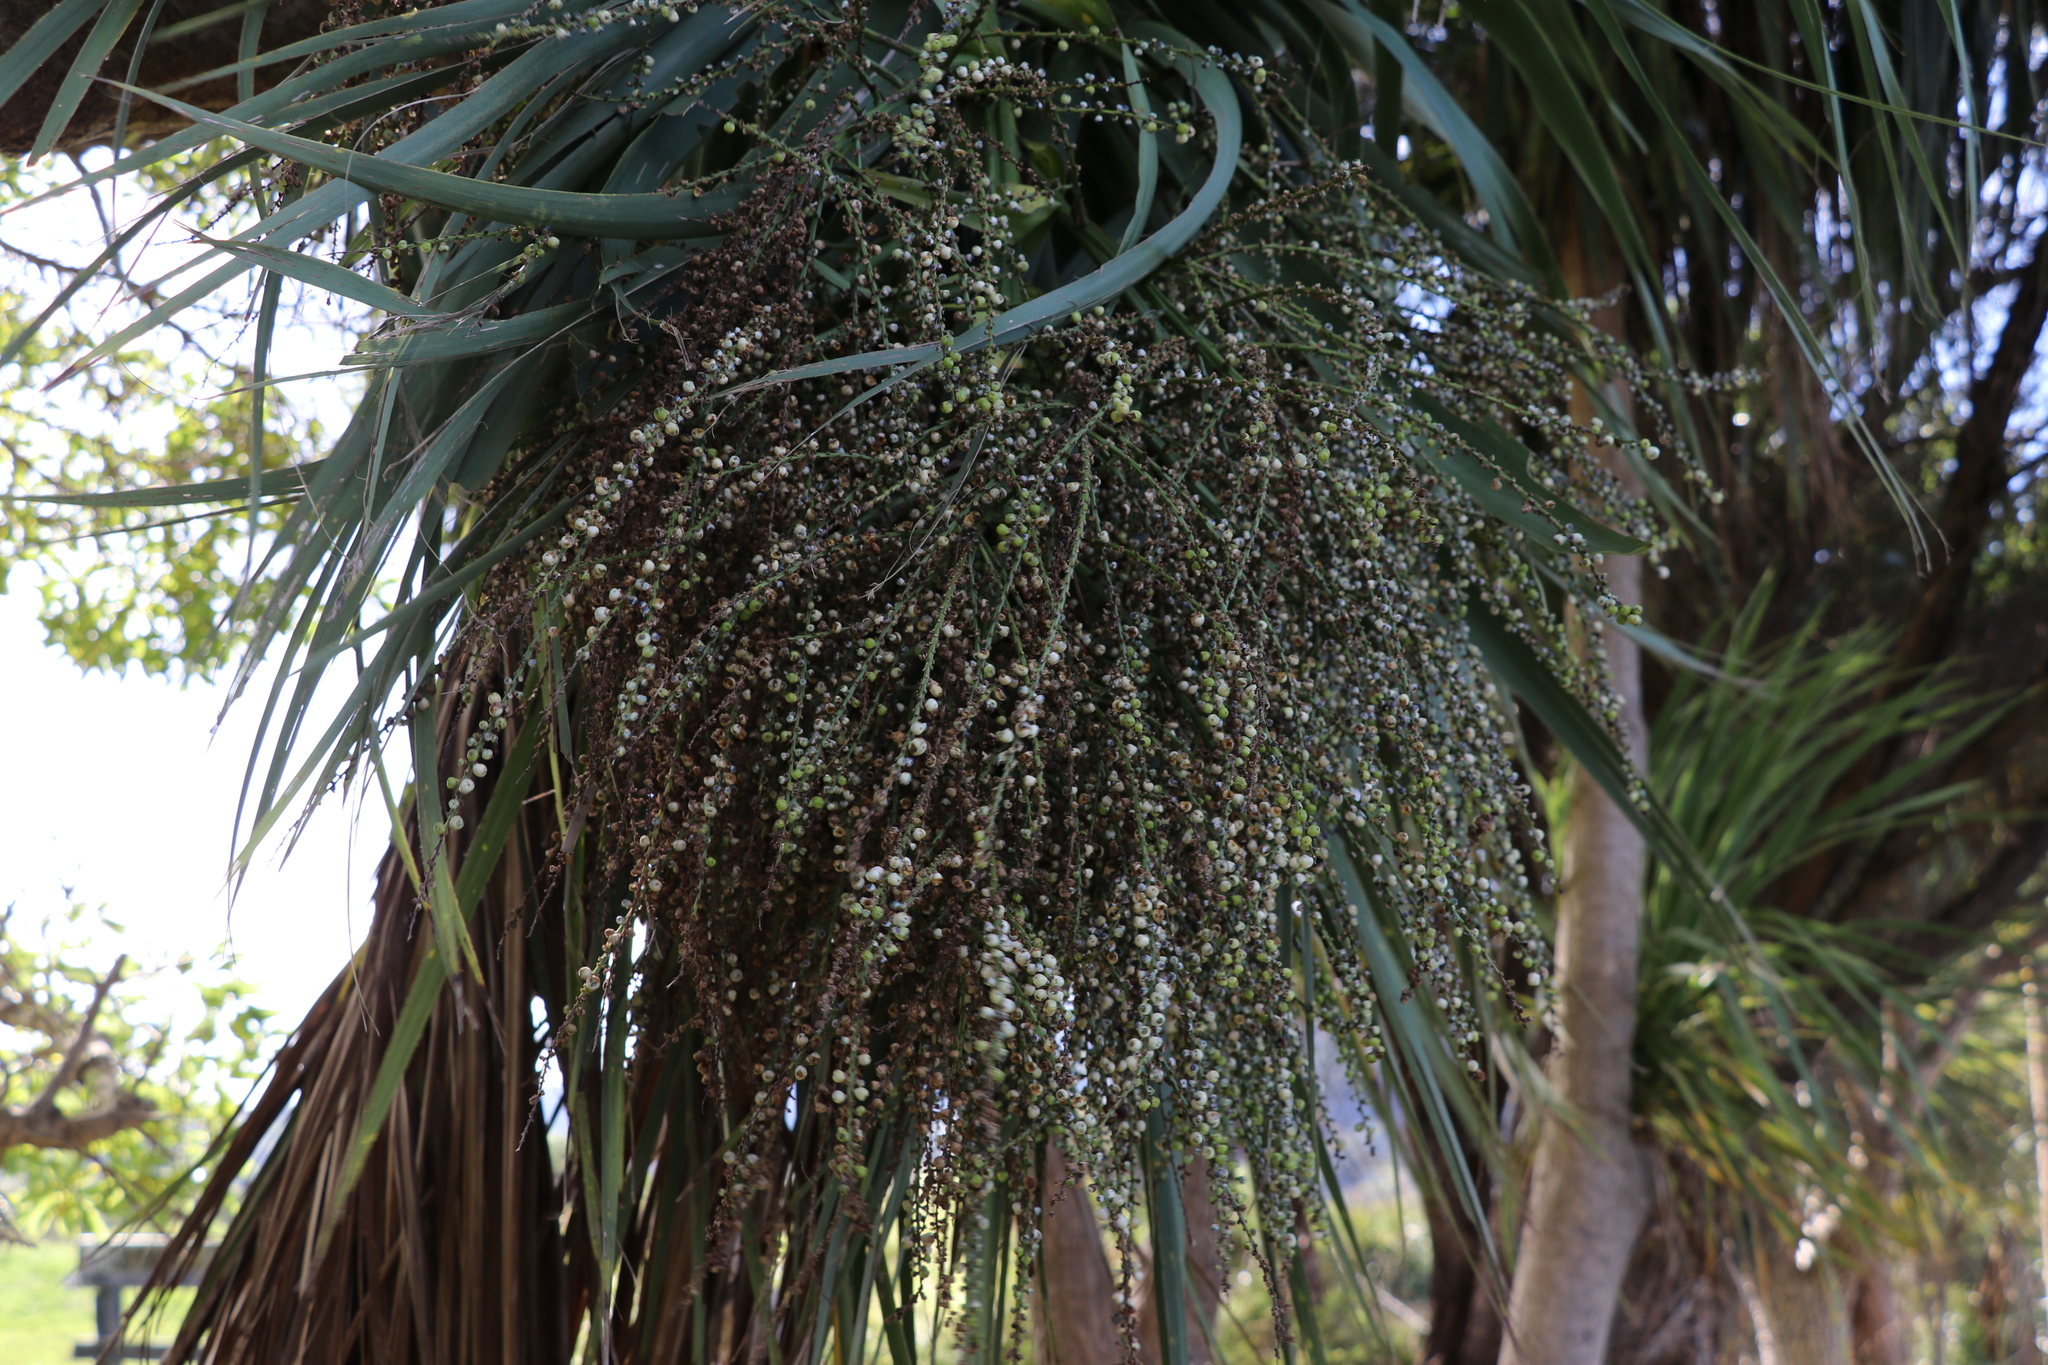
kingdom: Plantae
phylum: Tracheophyta
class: Liliopsida
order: Asparagales
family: Asparagaceae
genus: Cordyline
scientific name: Cordyline australis
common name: Cabbage-palm
